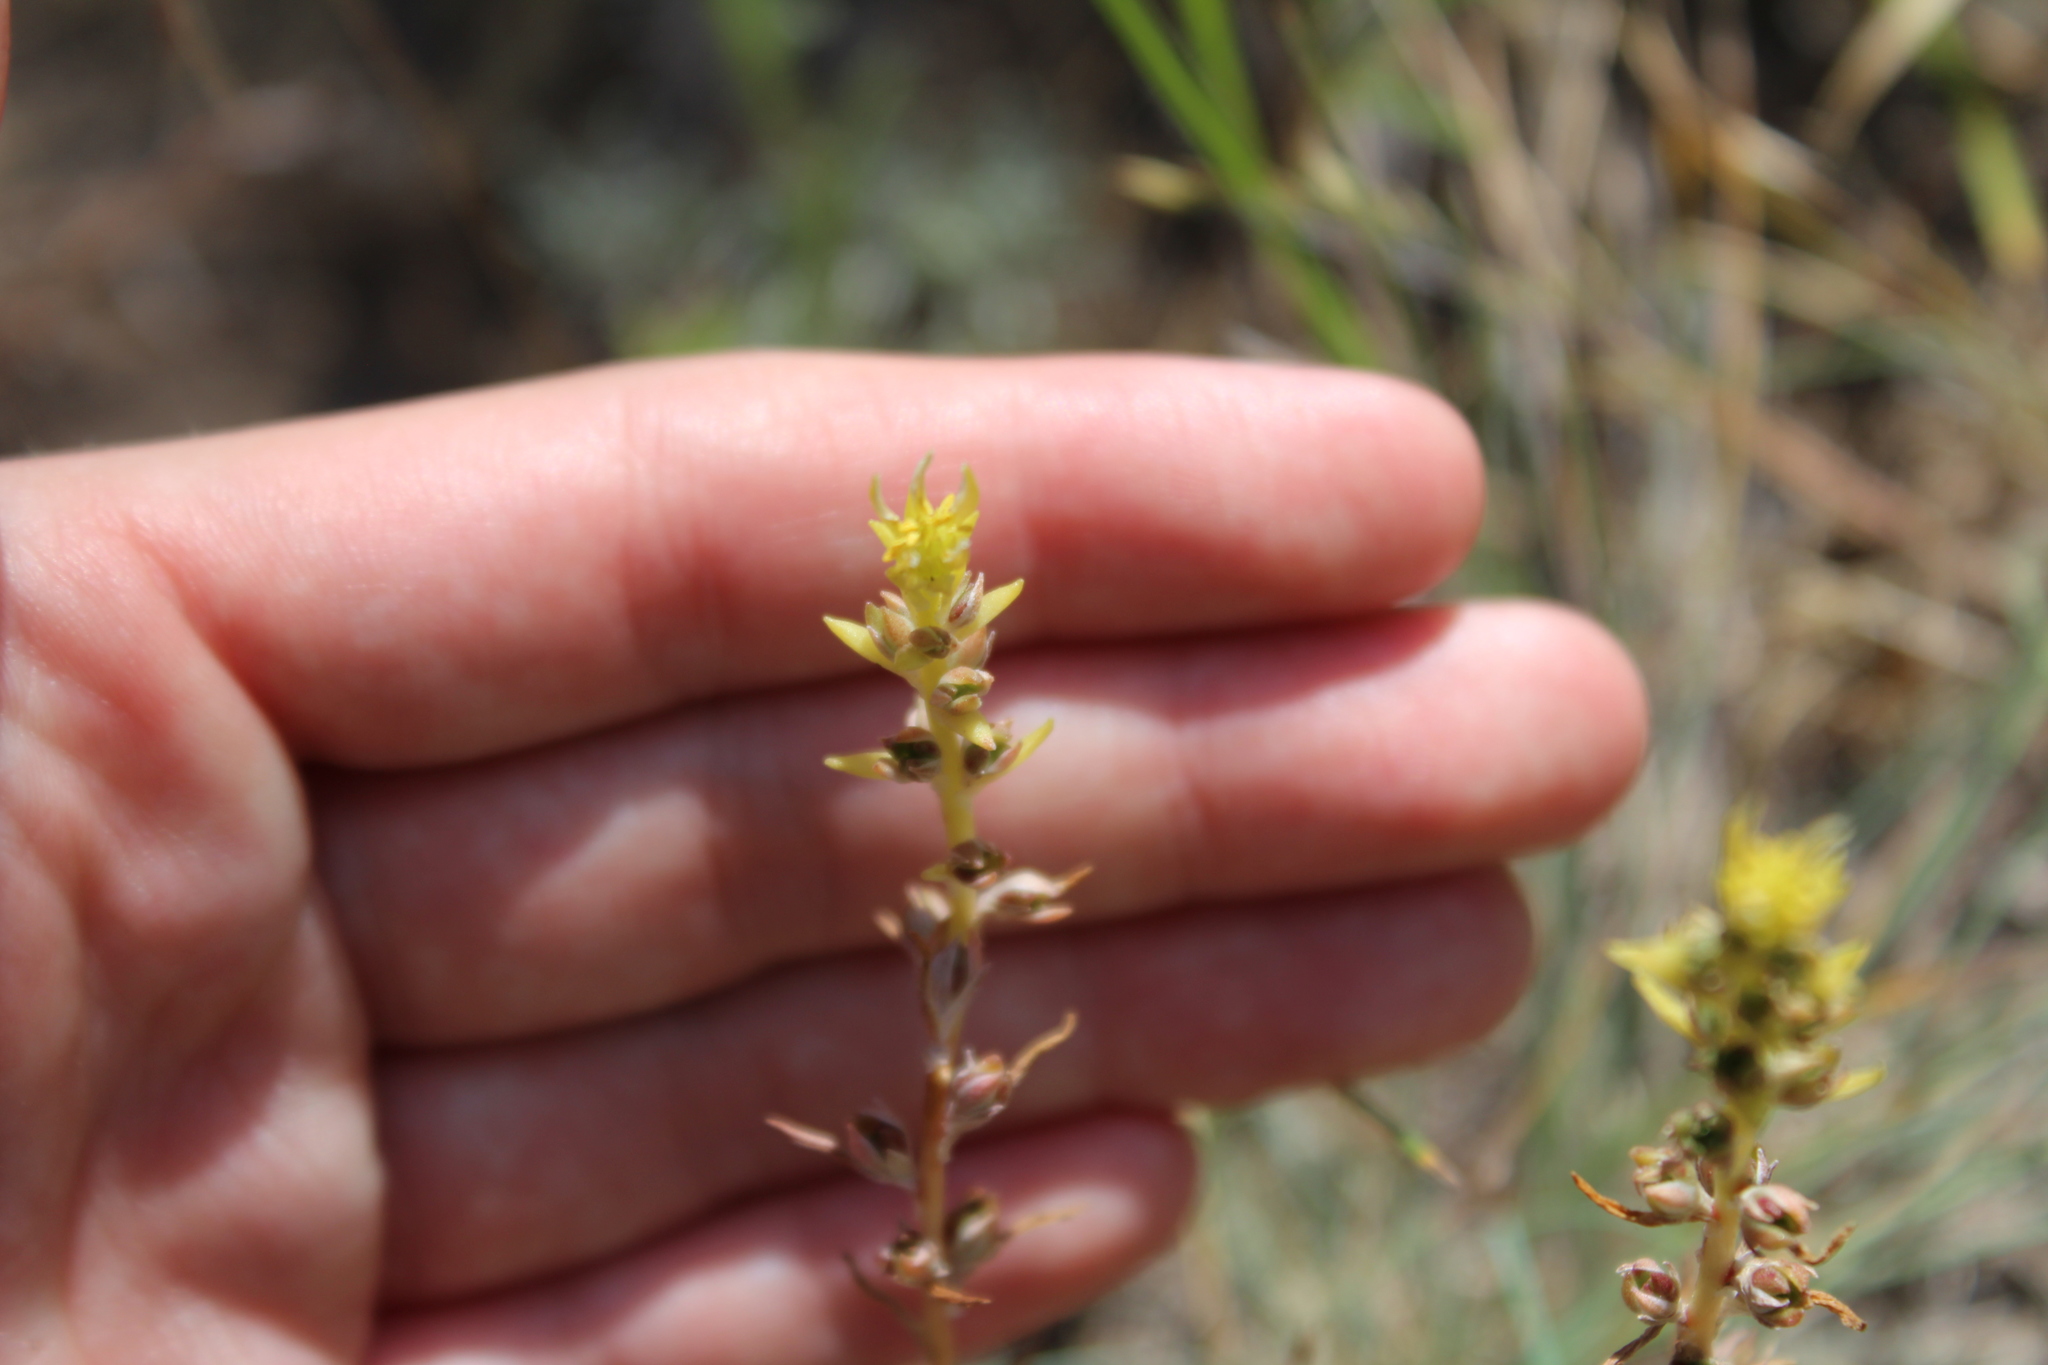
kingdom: Plantae
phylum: Tracheophyta
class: Magnoliopsida
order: Saxifragales
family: Crassulaceae
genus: Sedum
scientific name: Sedum stenopetalum
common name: Narrow-petaled stonecrop
